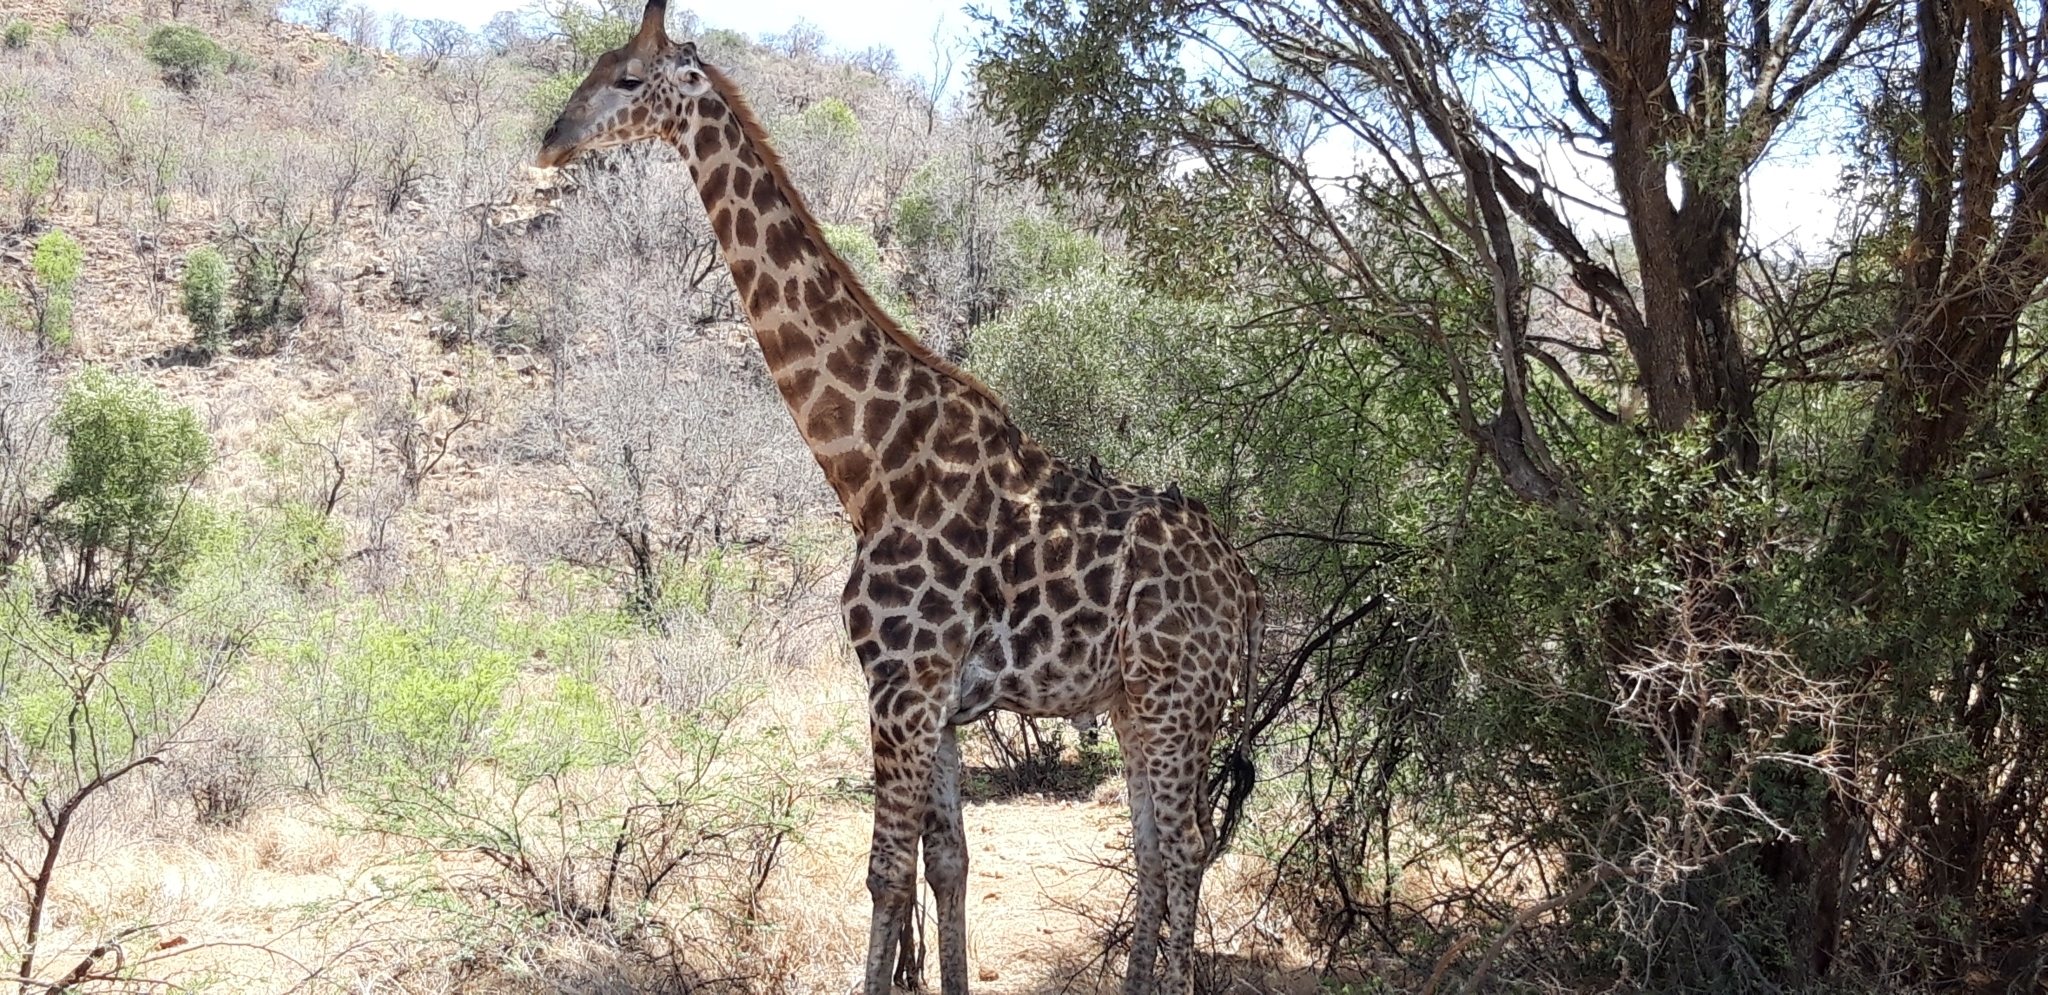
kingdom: Animalia
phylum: Chordata
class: Mammalia
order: Artiodactyla
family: Giraffidae
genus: Giraffa
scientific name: Giraffa giraffa
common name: Southern giraffe
